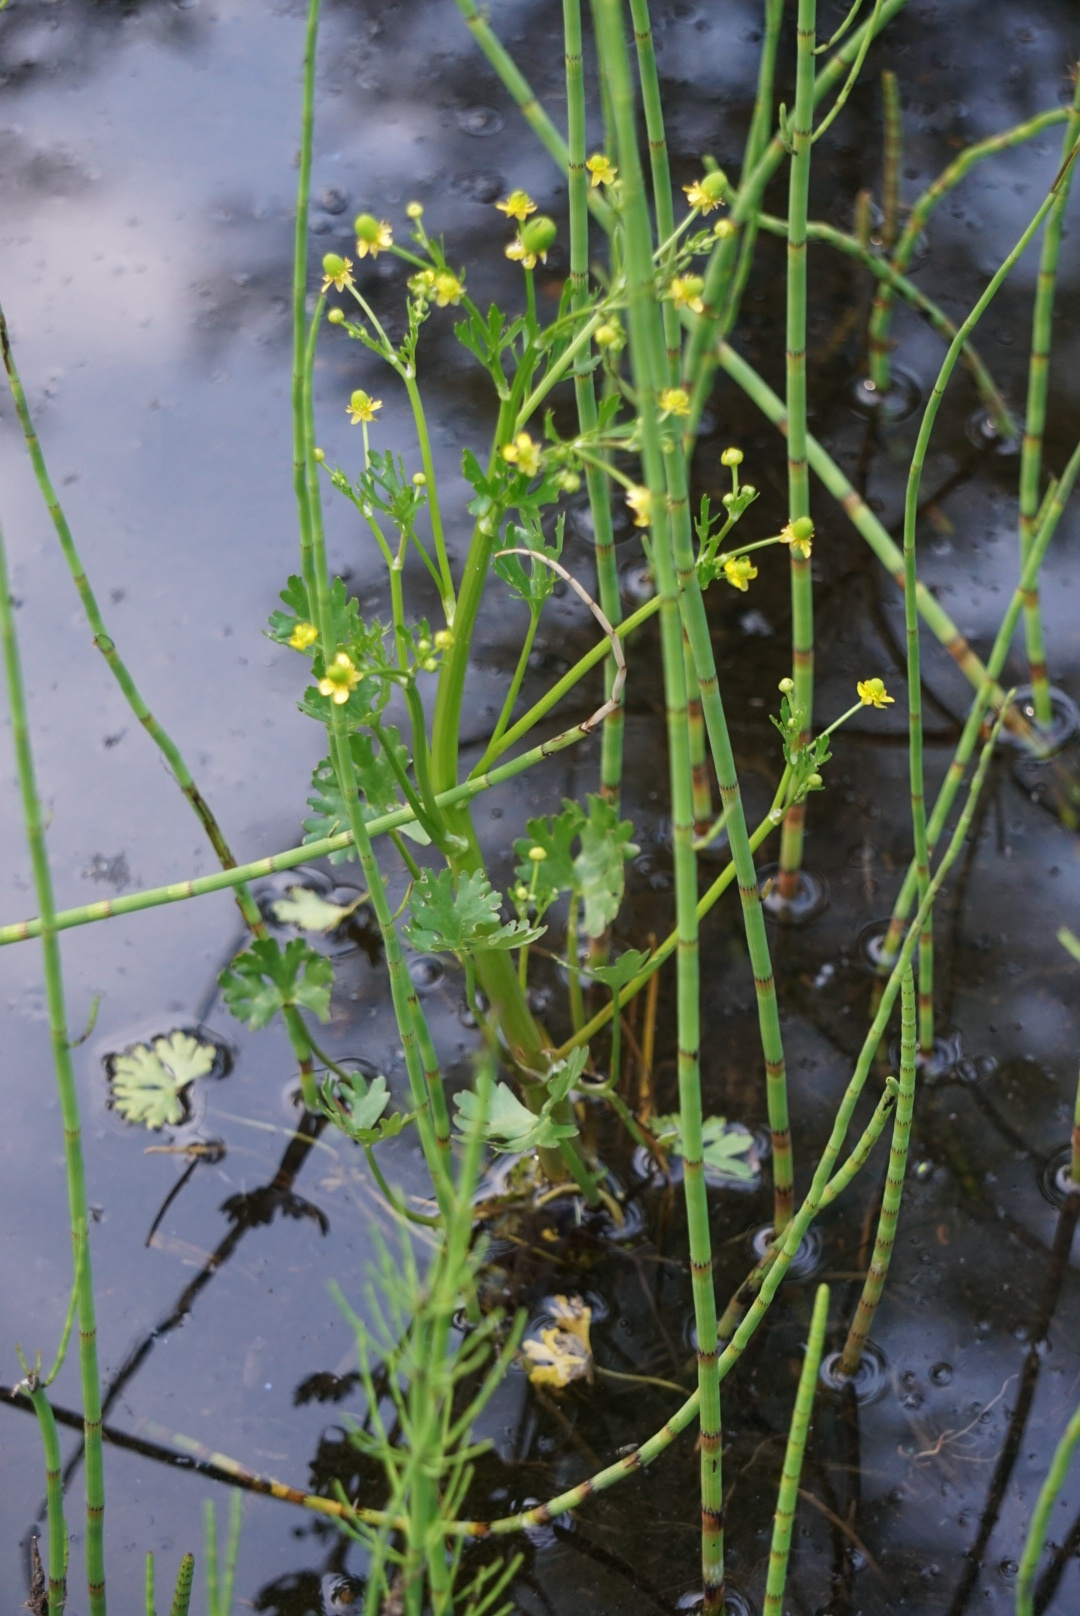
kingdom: Plantae
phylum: Tracheophyta
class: Magnoliopsida
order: Ranunculales
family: Ranunculaceae
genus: Ranunculus
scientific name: Ranunculus sceleratus
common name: Celery-leaved buttercup
